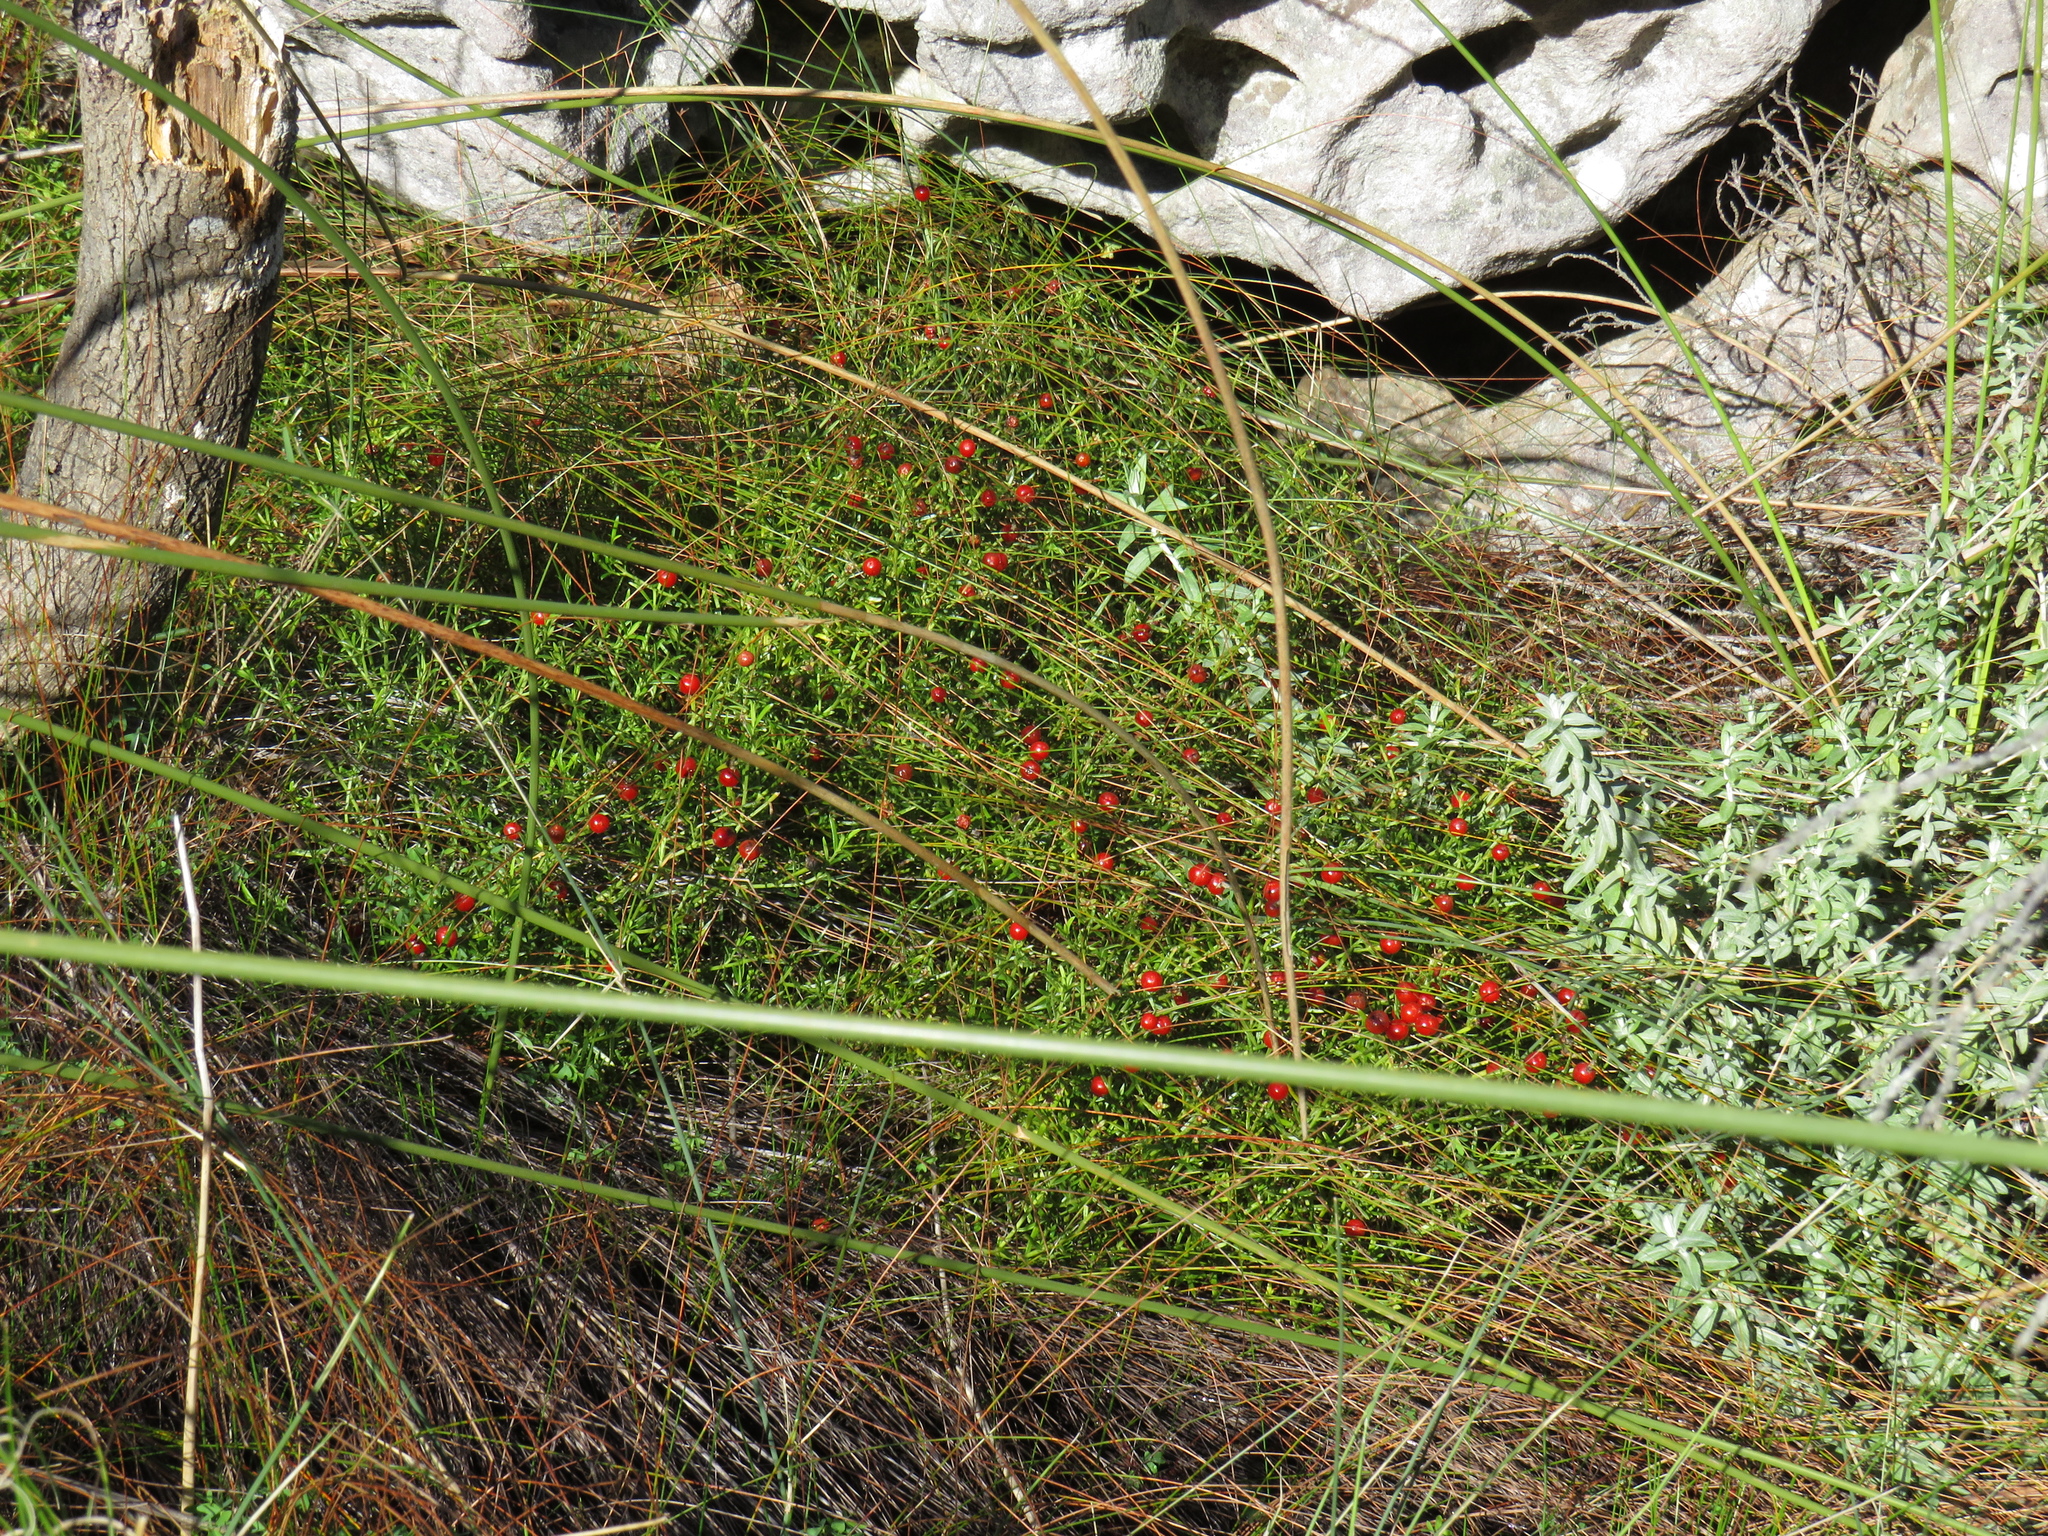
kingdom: Plantae
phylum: Tracheophyta
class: Magnoliopsida
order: Gentianales
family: Gentianaceae
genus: Chironia
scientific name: Chironia baccifera
